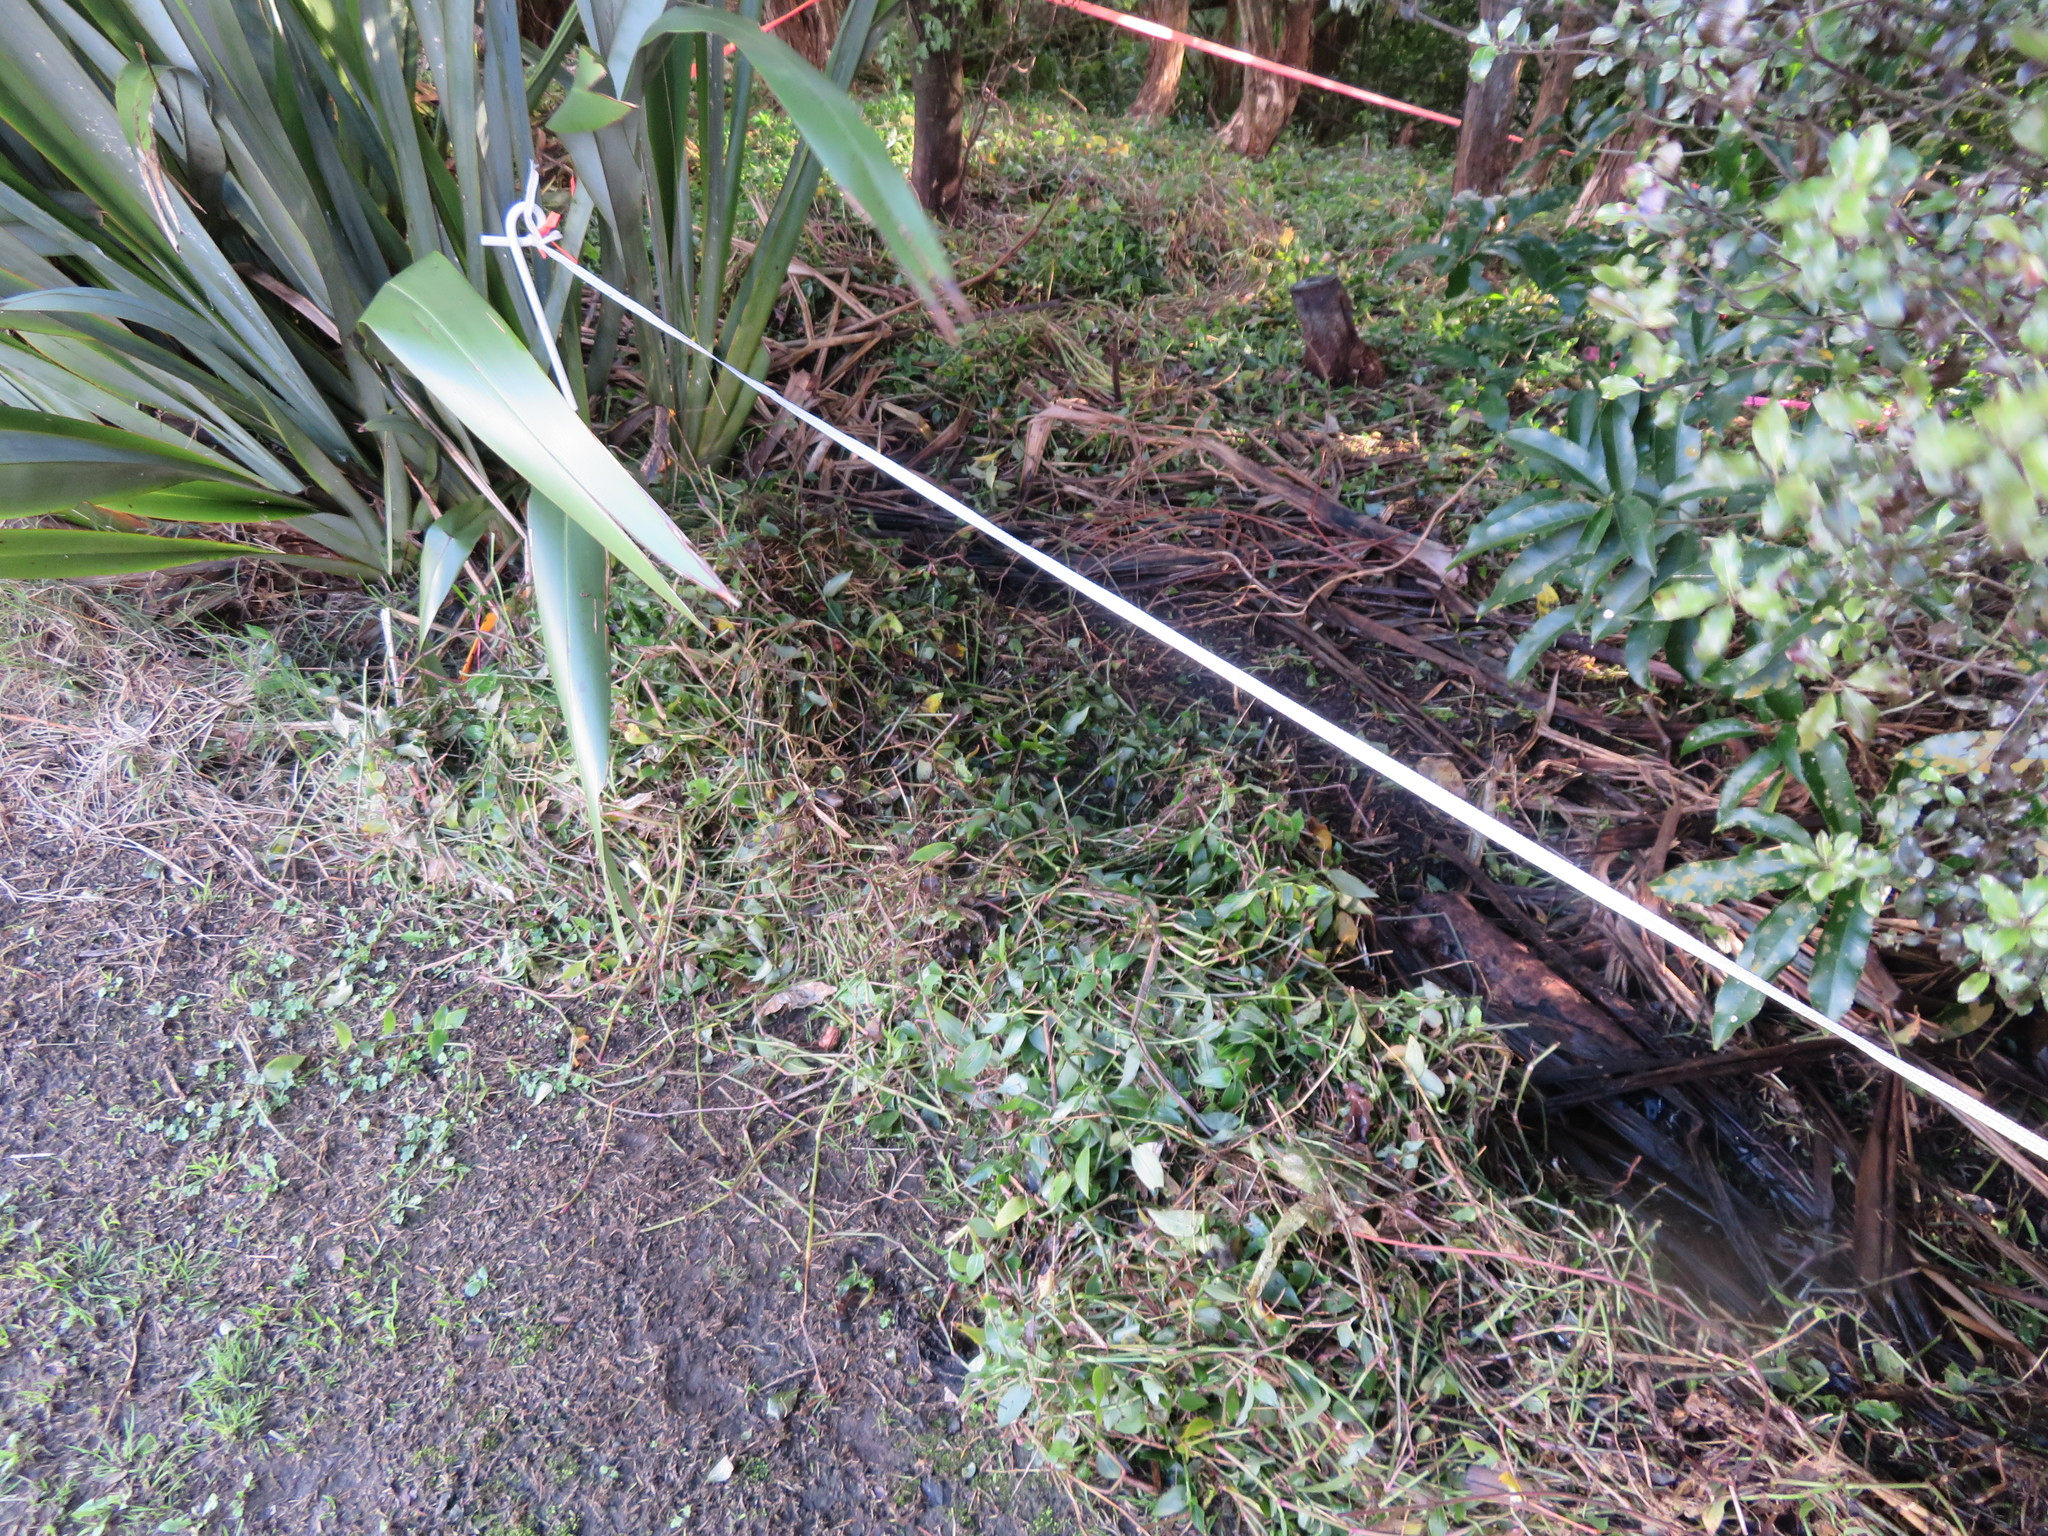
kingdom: Plantae
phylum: Tracheophyta
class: Liliopsida
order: Commelinales
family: Commelinaceae
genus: Tradescantia
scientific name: Tradescantia fluminensis
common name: Wandering-jew
